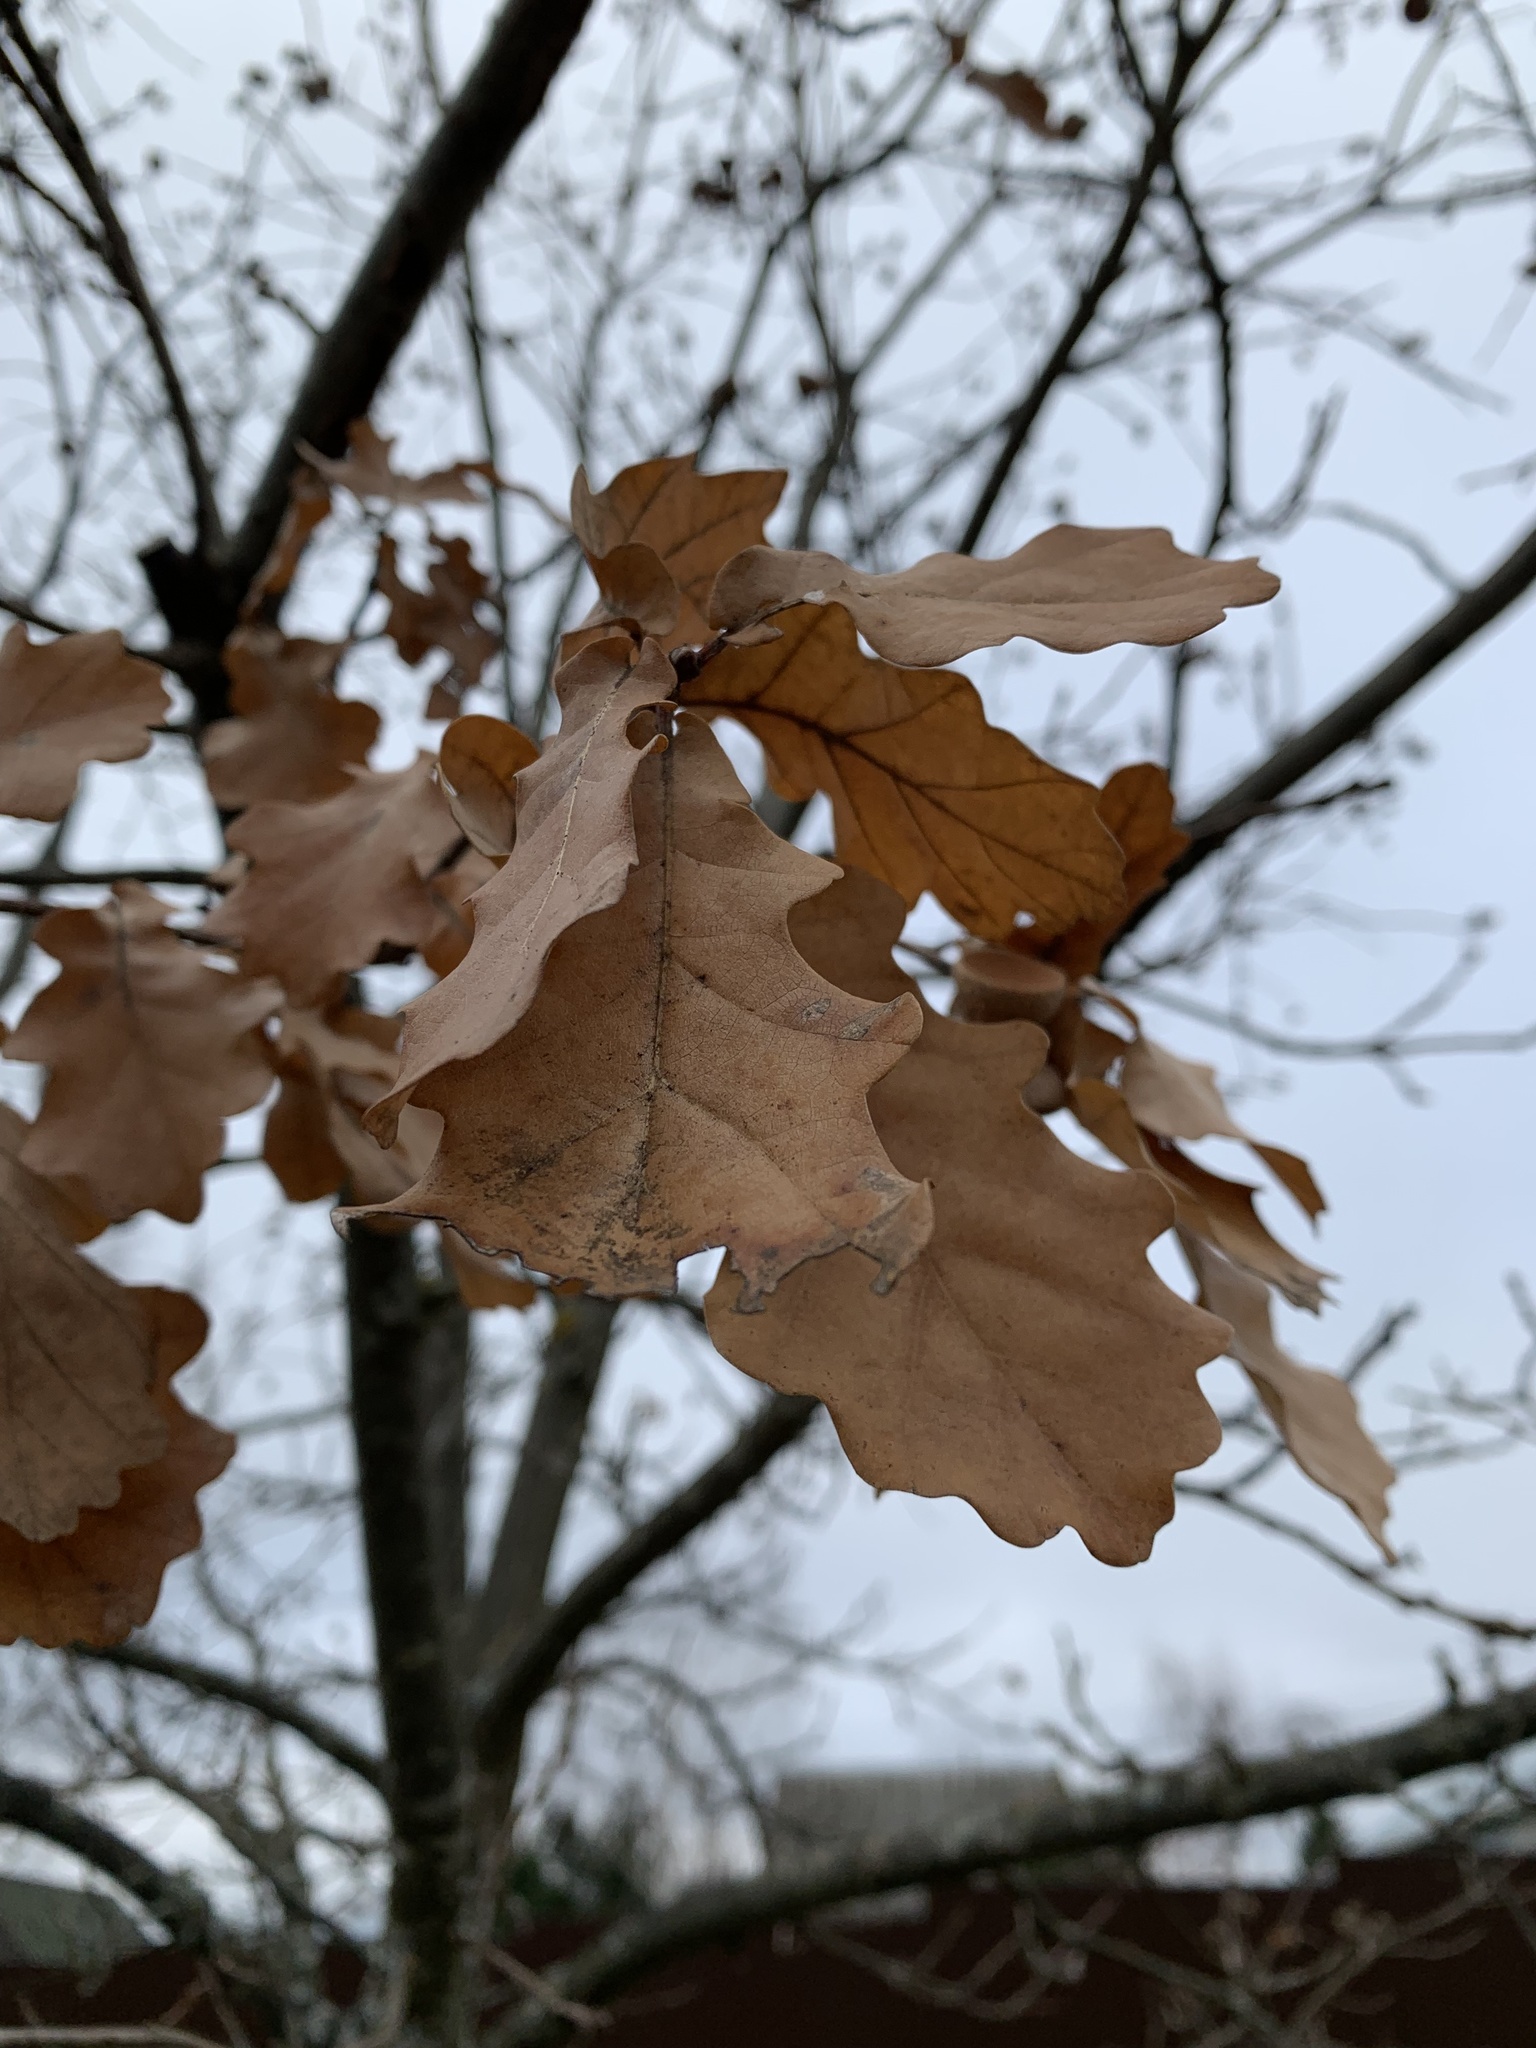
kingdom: Plantae
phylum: Tracheophyta
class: Magnoliopsida
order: Fagales
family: Fagaceae
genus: Quercus
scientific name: Quercus robur
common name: Pedunculate oak
